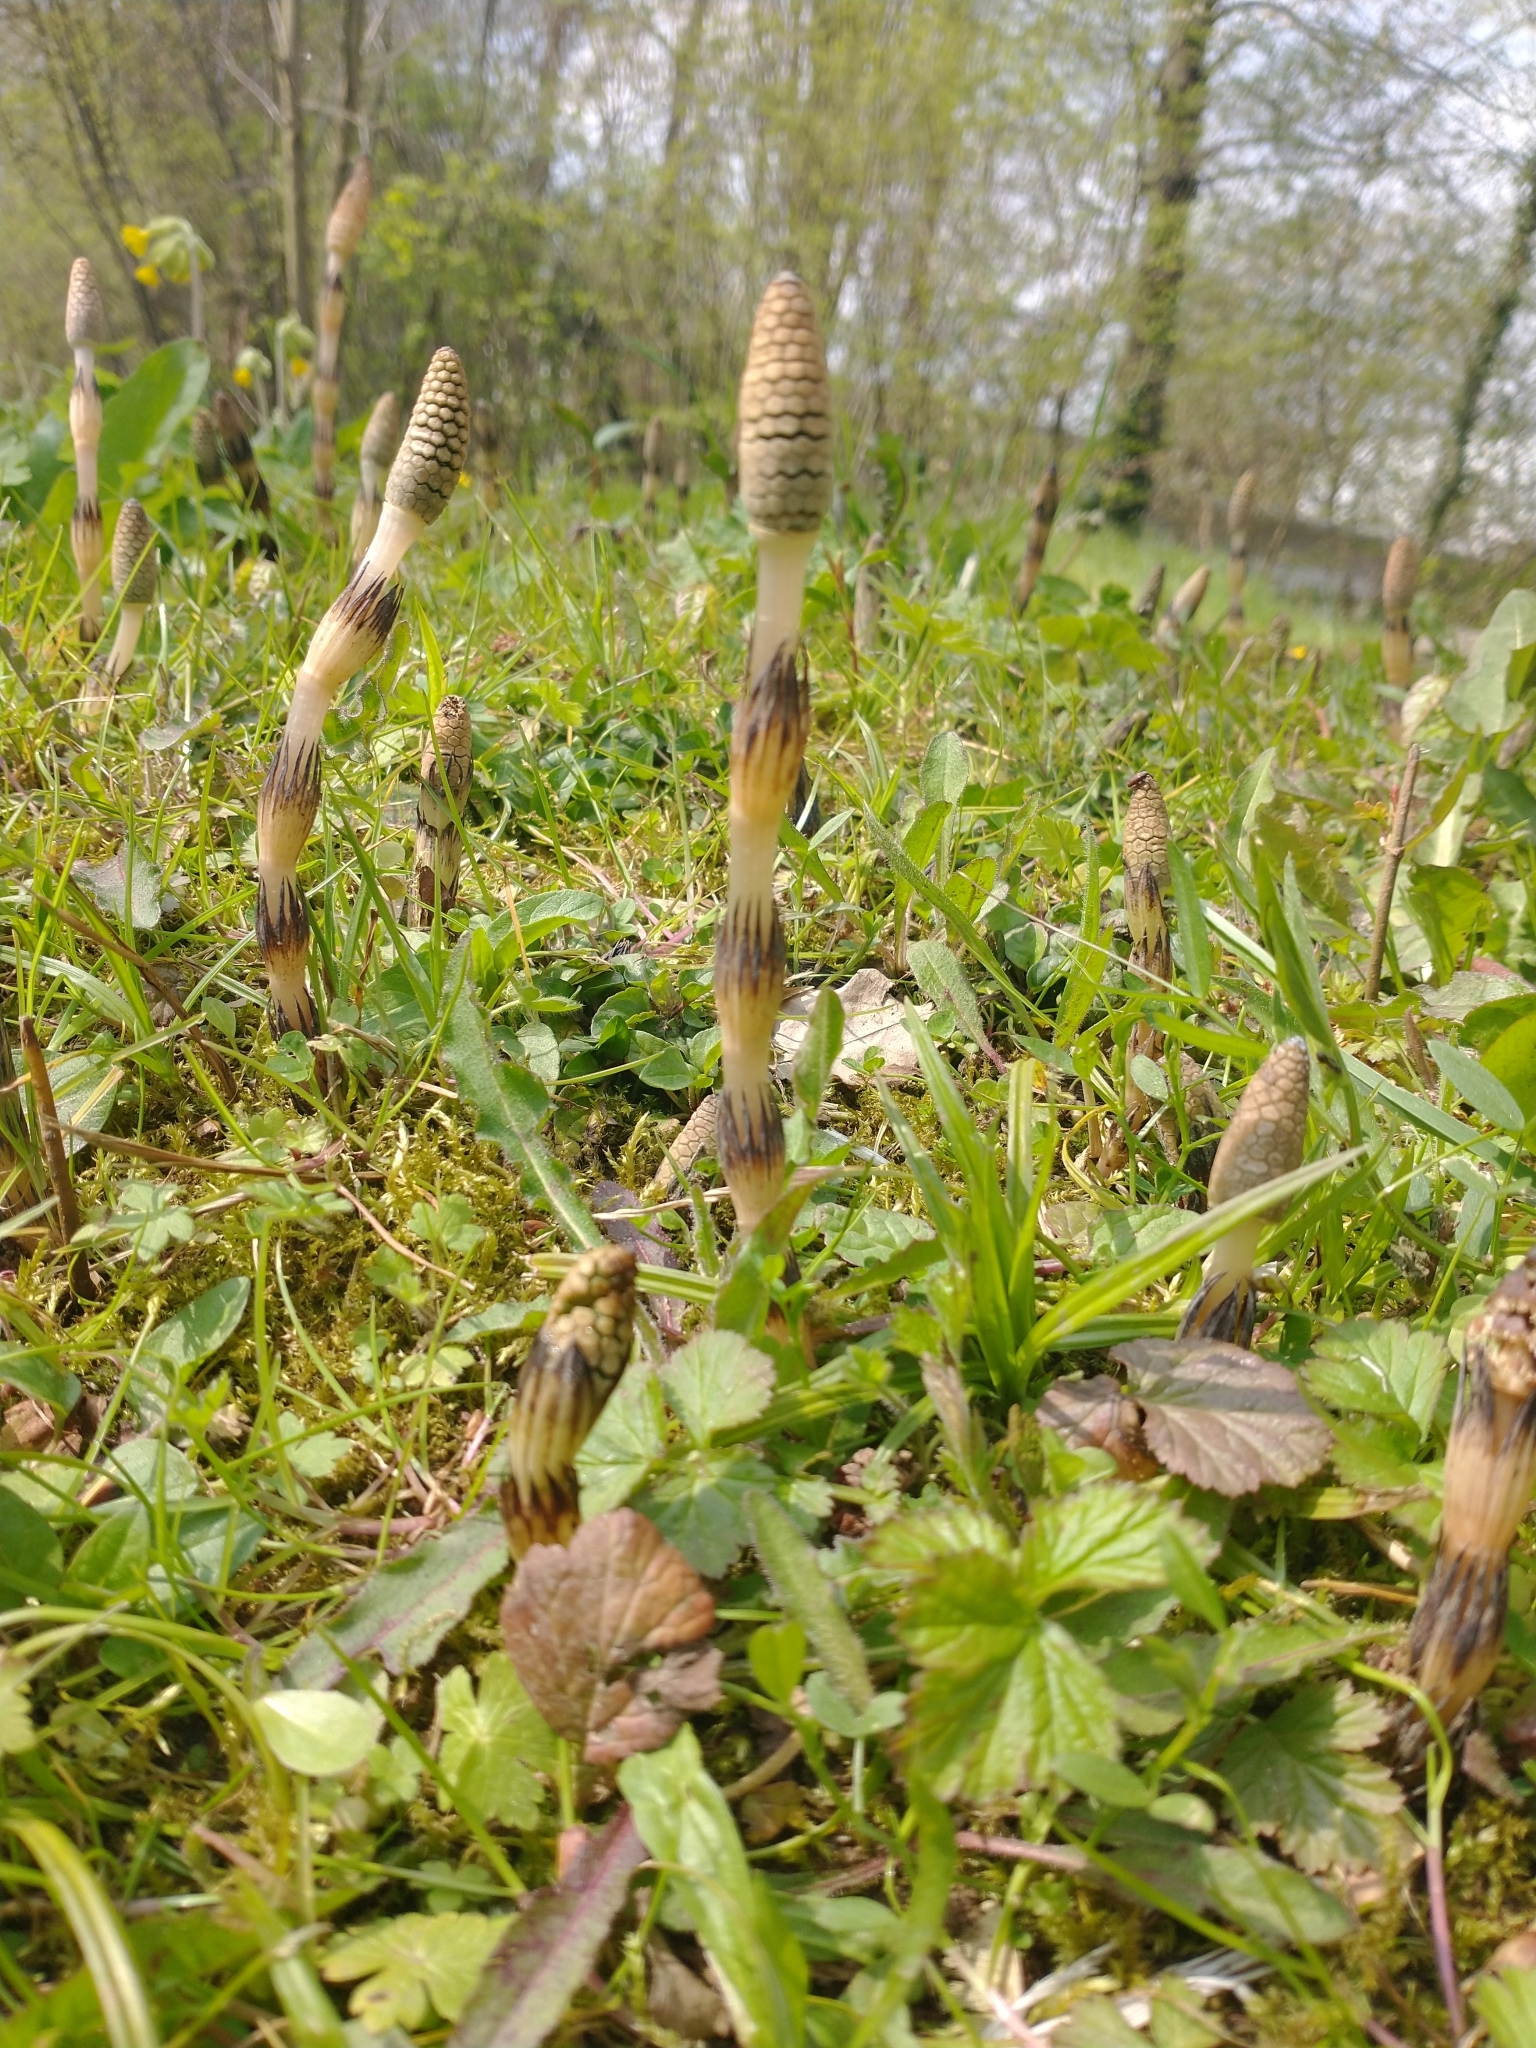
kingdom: Plantae
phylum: Tracheophyta
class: Polypodiopsida
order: Equisetales
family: Equisetaceae
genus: Equisetum
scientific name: Equisetum arvense
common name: Field horsetail
